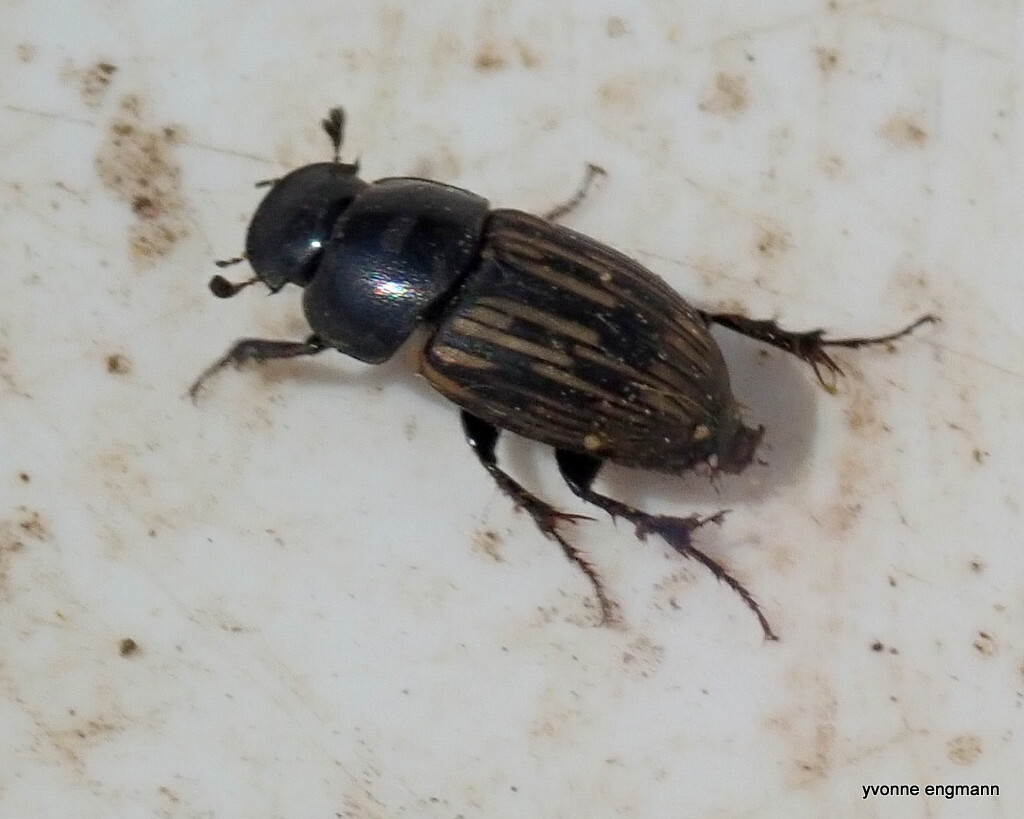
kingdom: Animalia
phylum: Arthropoda
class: Insecta
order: Coleoptera
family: Scarabaeidae
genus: Acrossus
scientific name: Acrossus luridus
